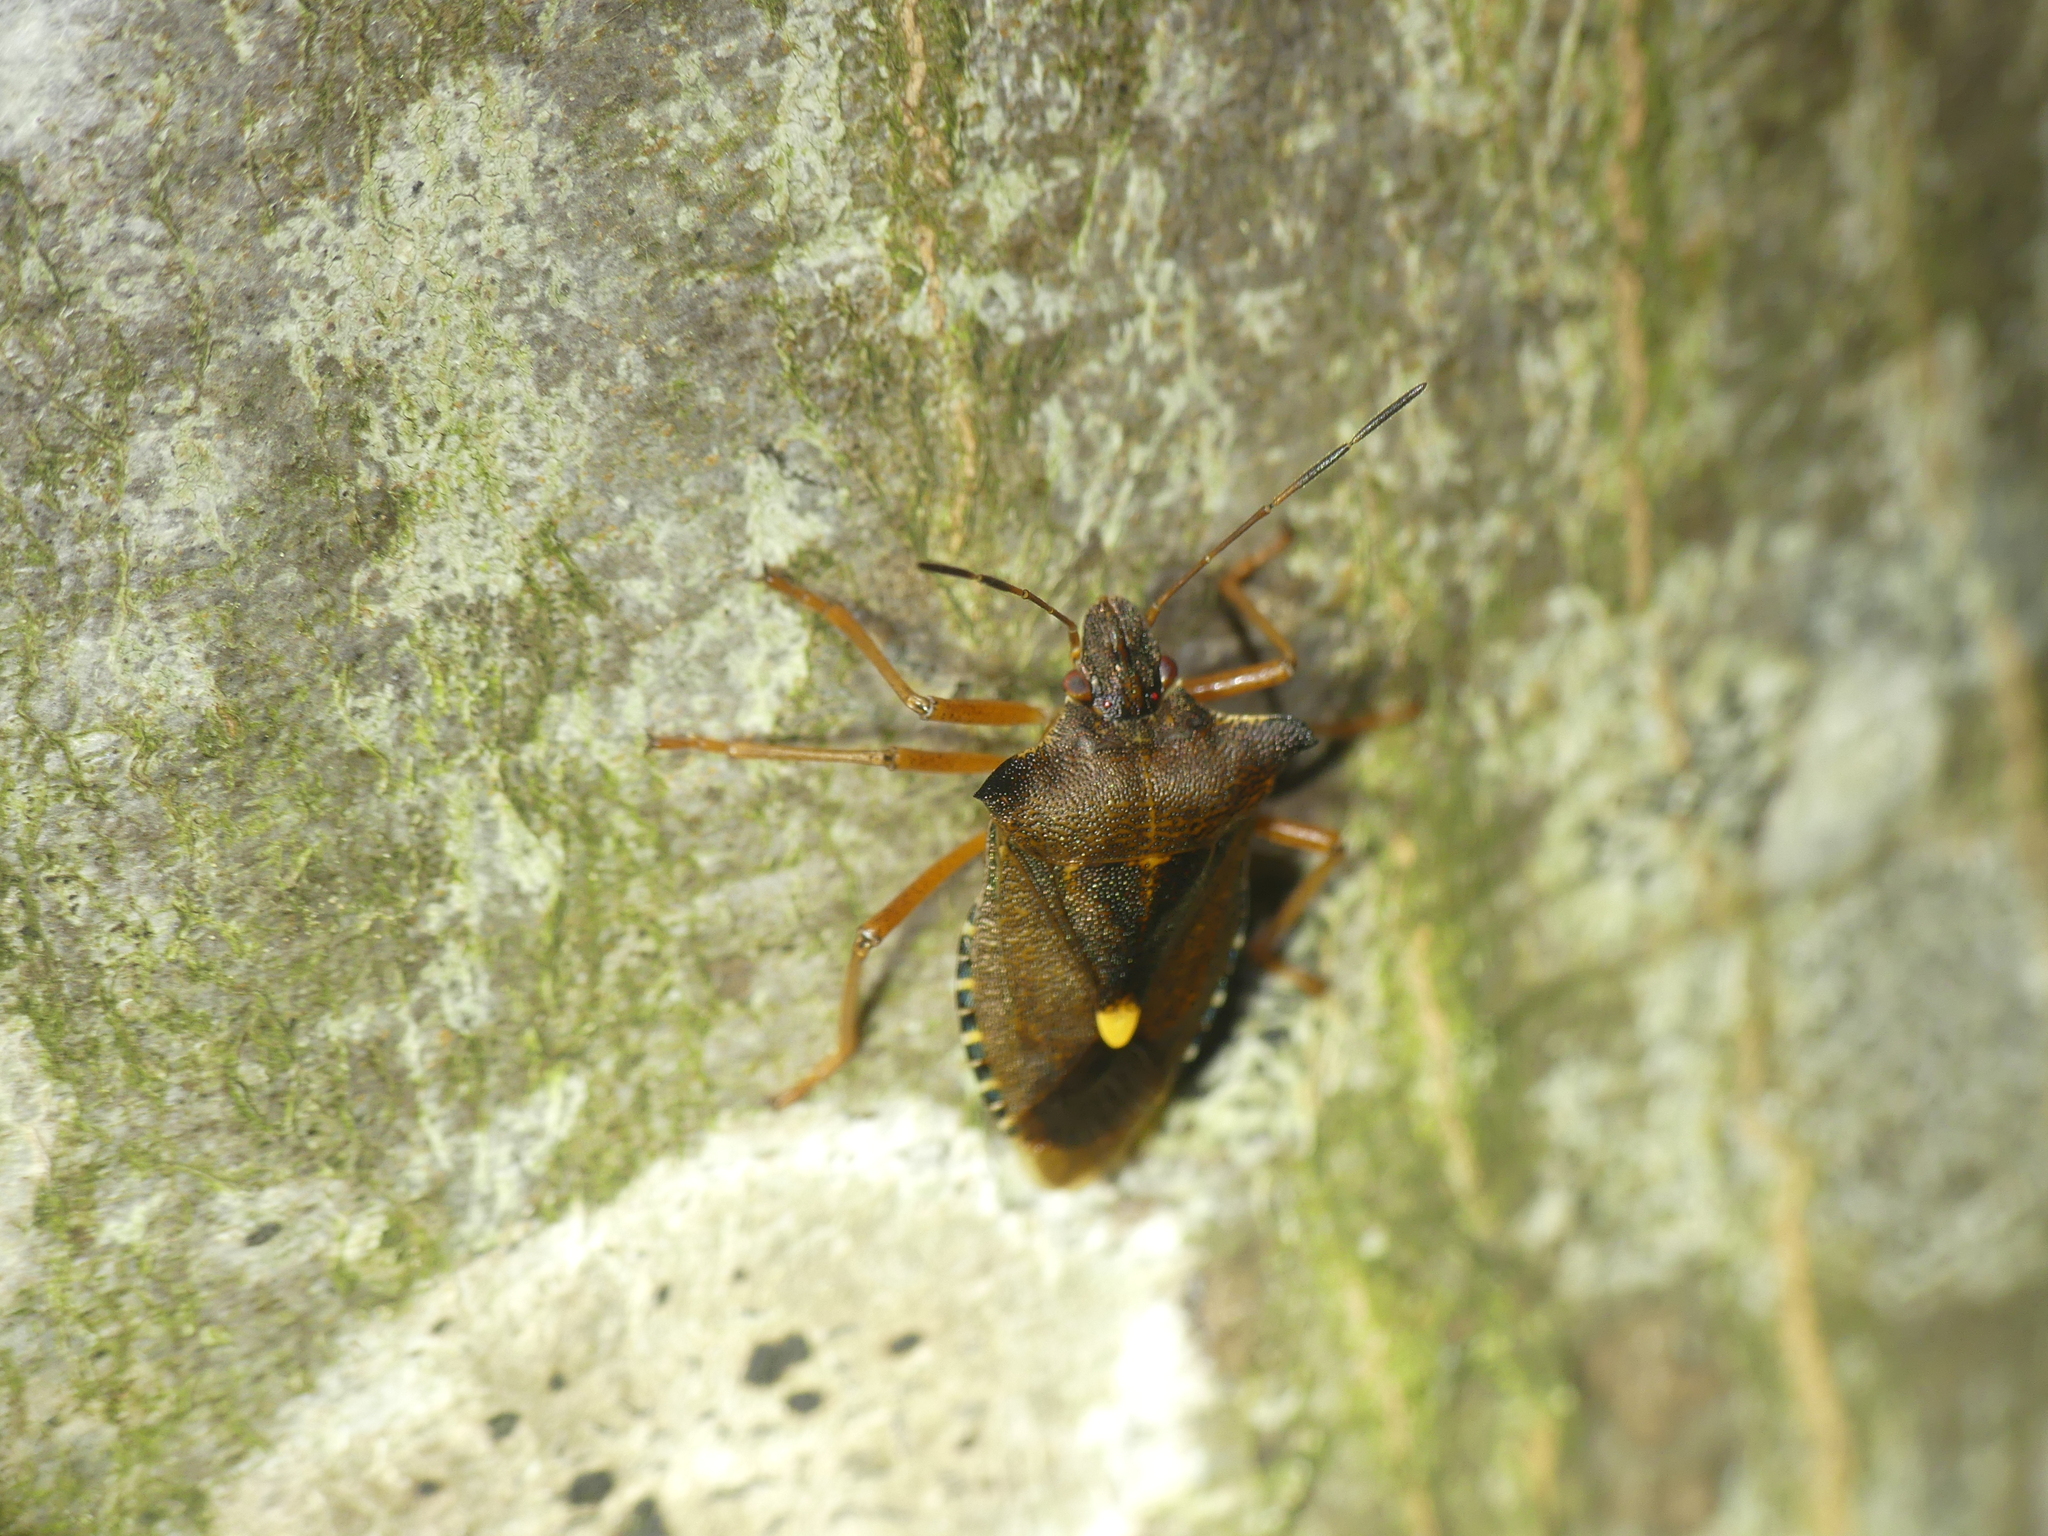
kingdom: Animalia
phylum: Arthropoda
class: Insecta
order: Hemiptera
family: Pentatomidae
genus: Pentatoma
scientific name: Pentatoma rufipes
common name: Forest bug
